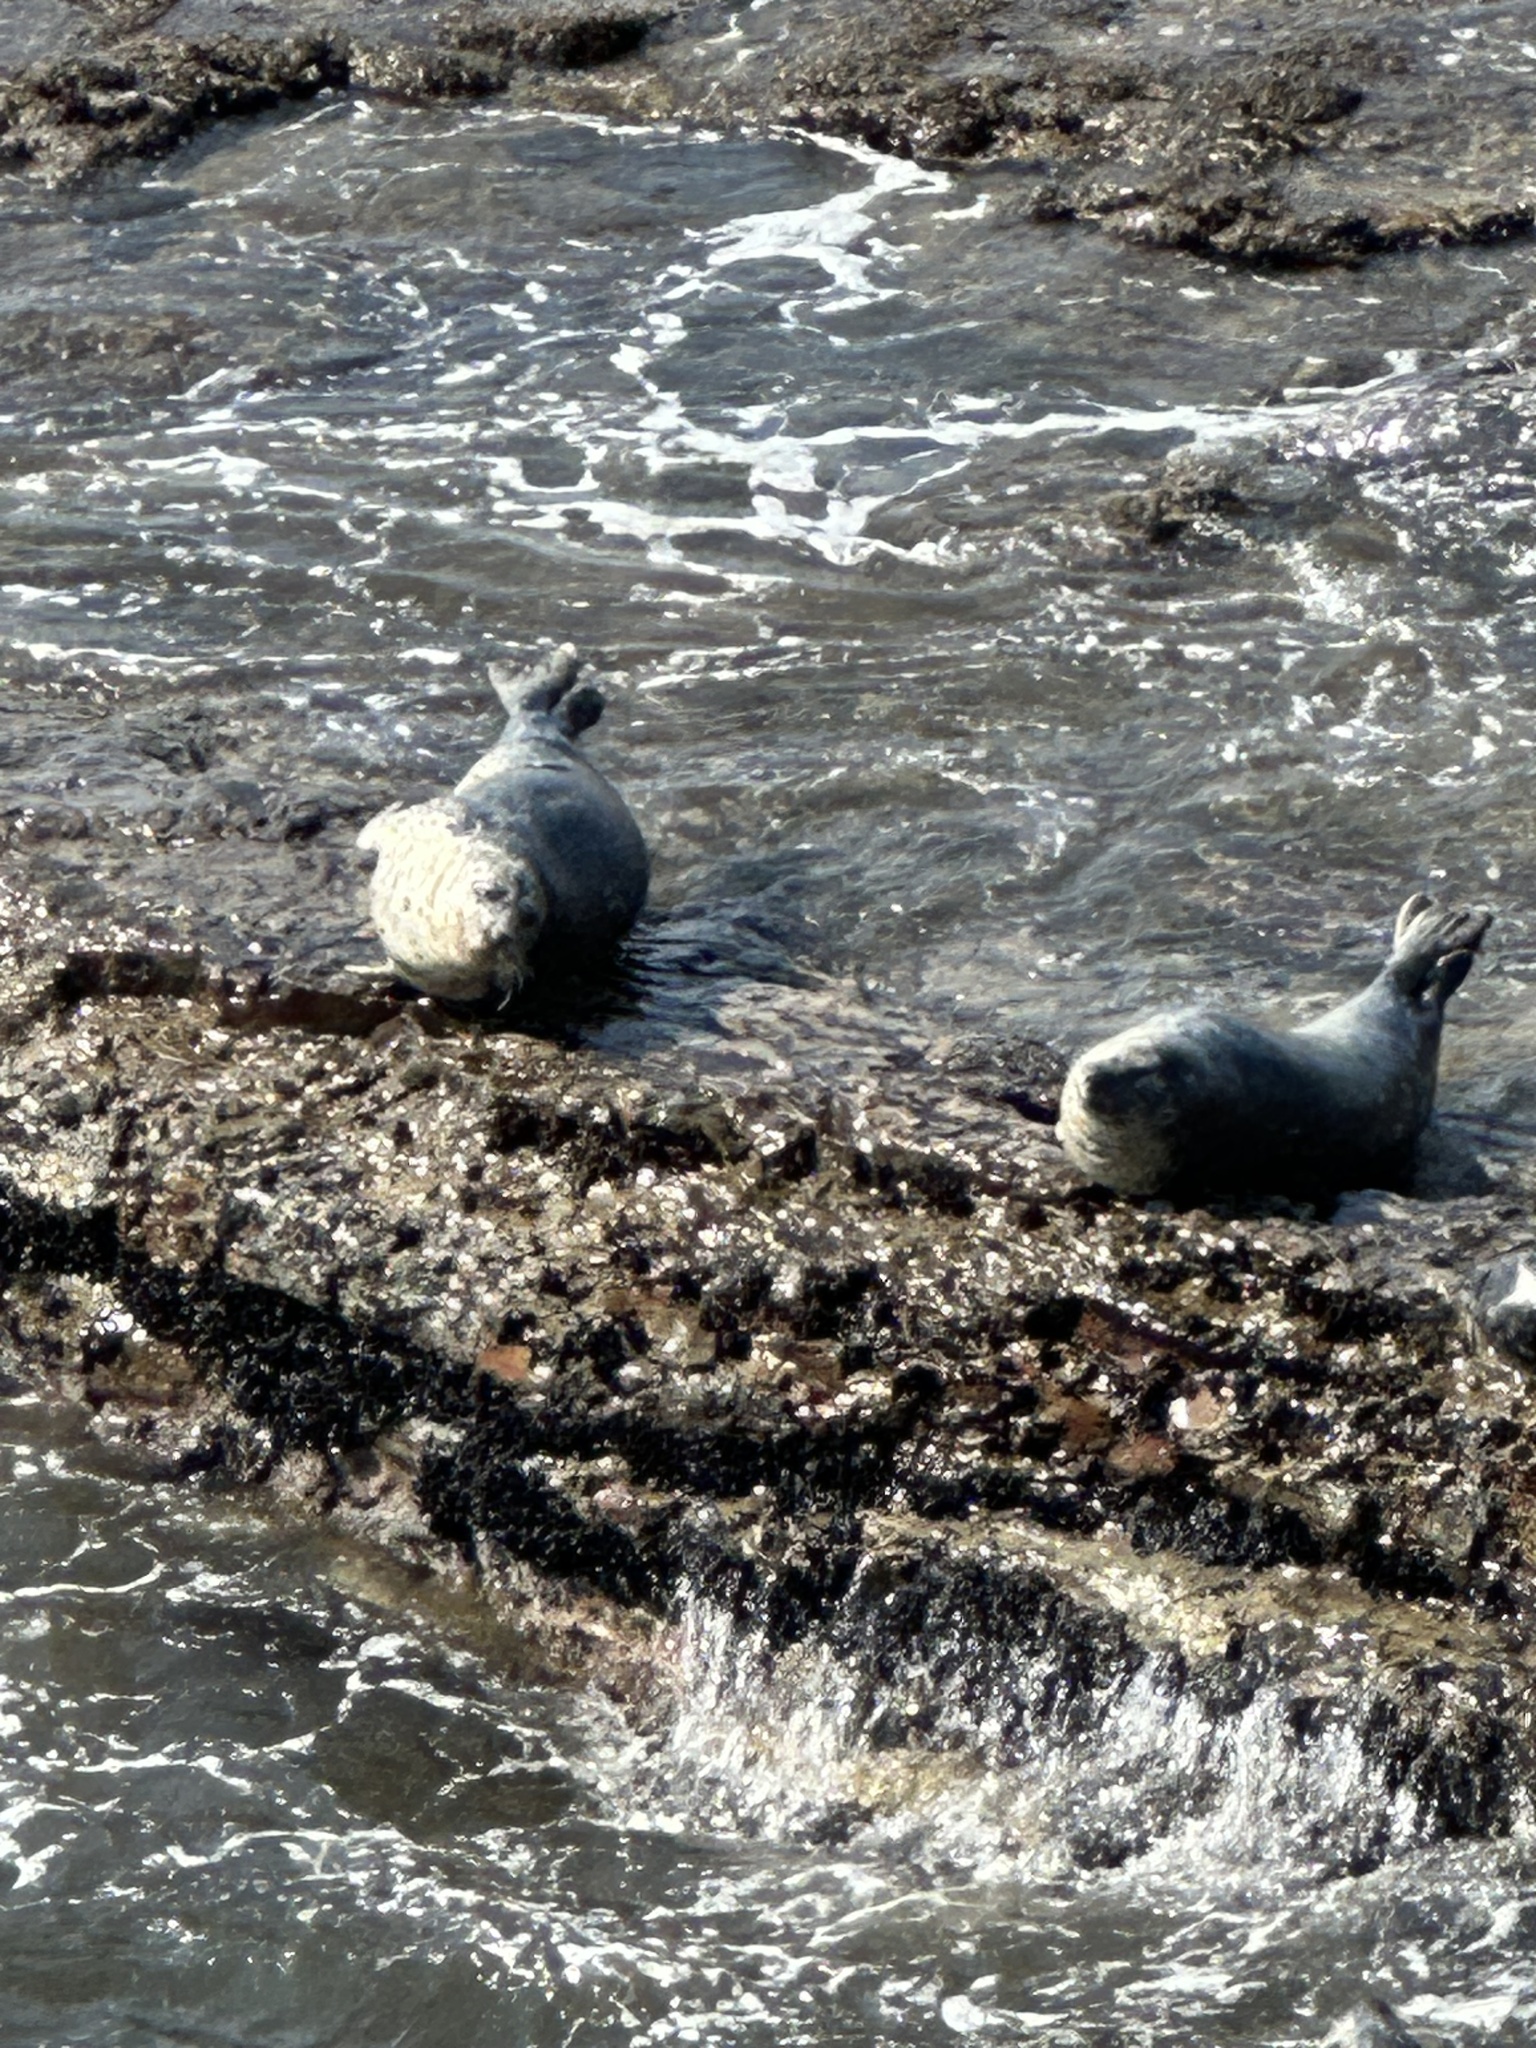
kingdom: Animalia
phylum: Chordata
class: Mammalia
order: Carnivora
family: Phocidae
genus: Phoca
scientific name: Phoca vitulina
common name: Harbor seal
